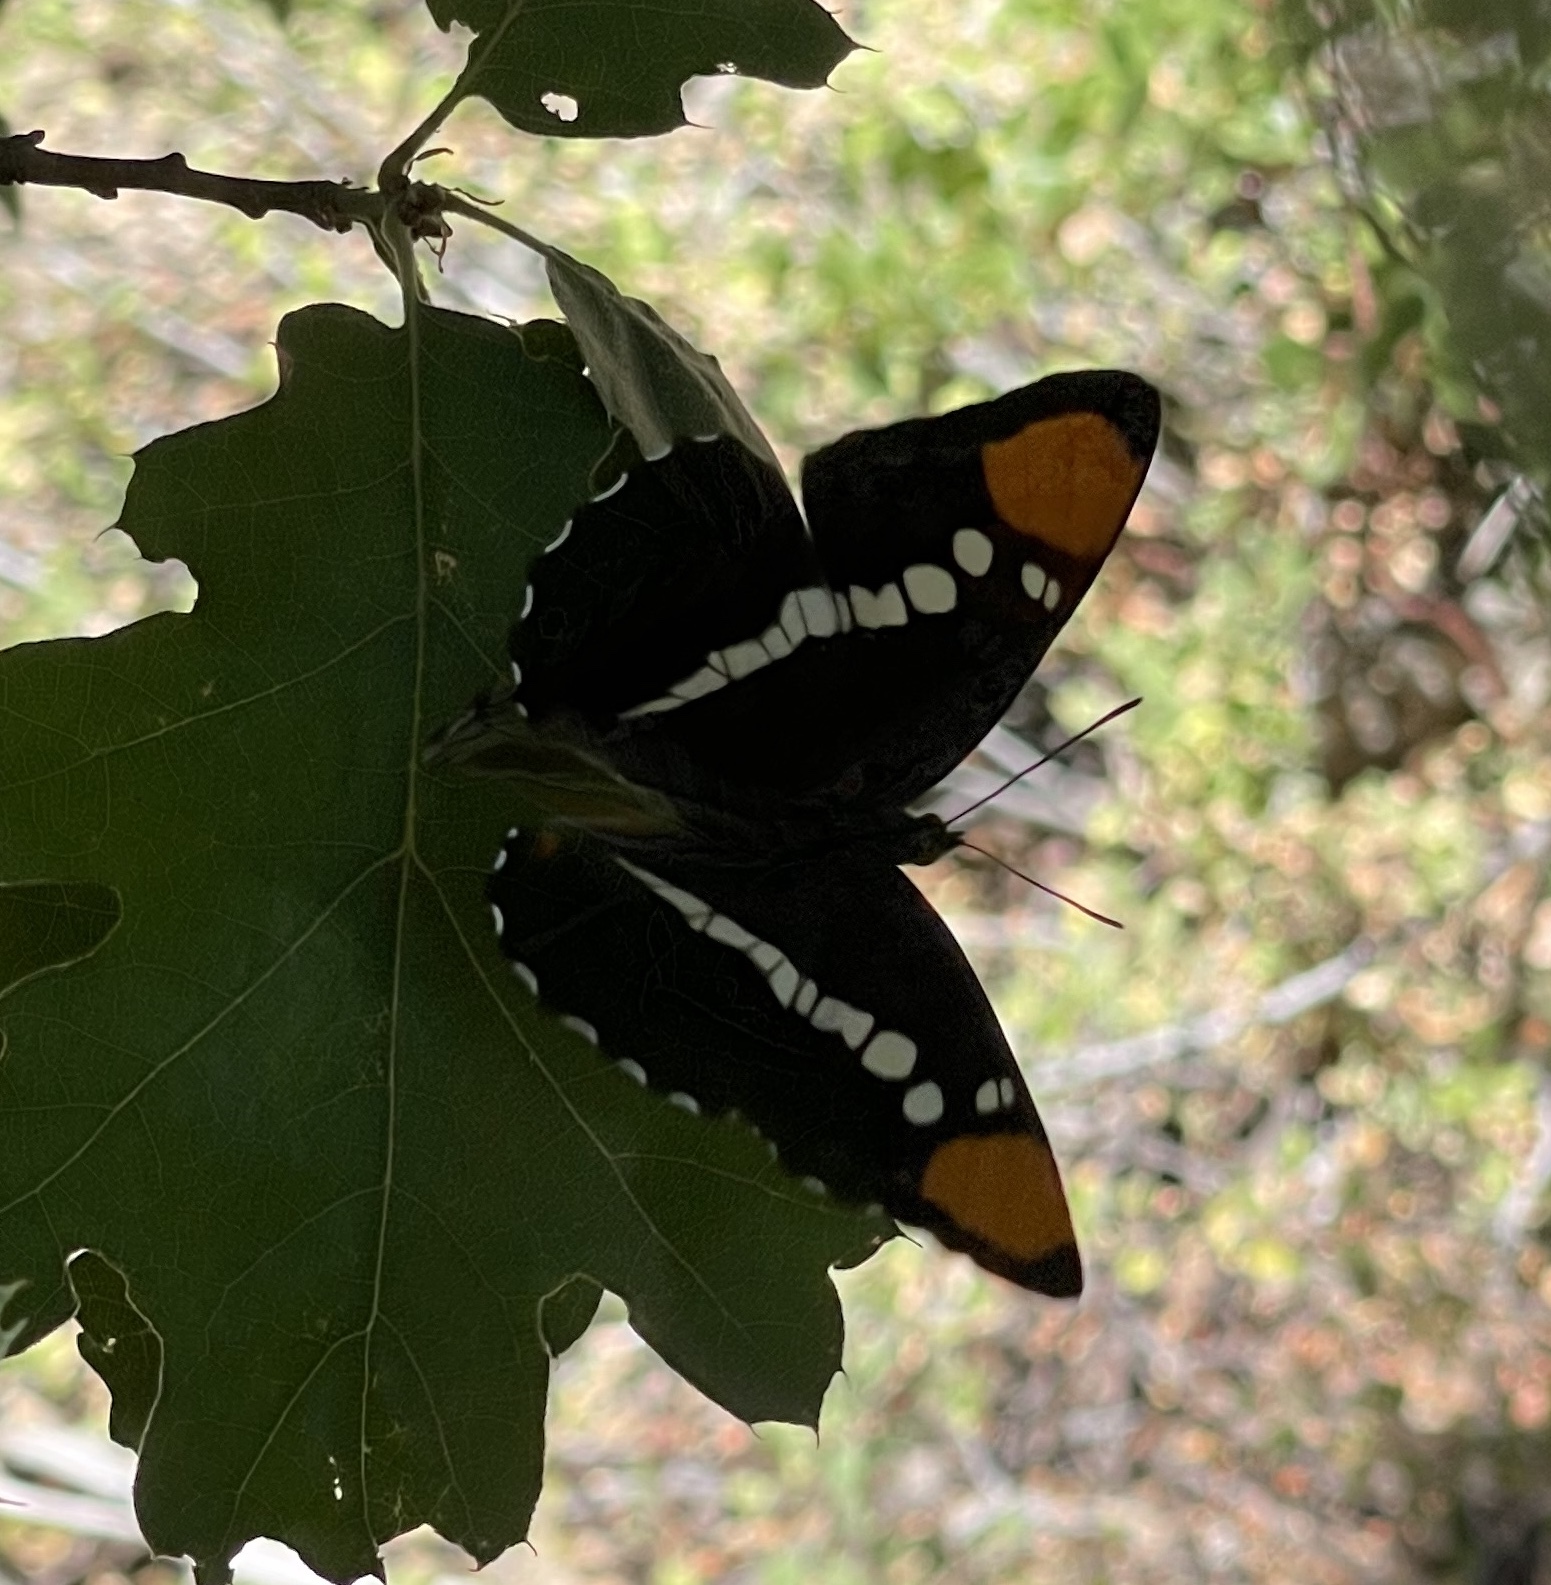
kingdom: Animalia
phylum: Arthropoda
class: Insecta
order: Lepidoptera
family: Nymphalidae
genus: Limenitis
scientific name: Limenitis bredowii
